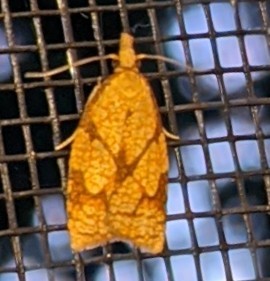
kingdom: Animalia
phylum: Arthropoda
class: Insecta
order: Lepidoptera
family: Tortricidae
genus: Cenopis
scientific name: Cenopis reticulatana
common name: Reticulated fruitworm moth
